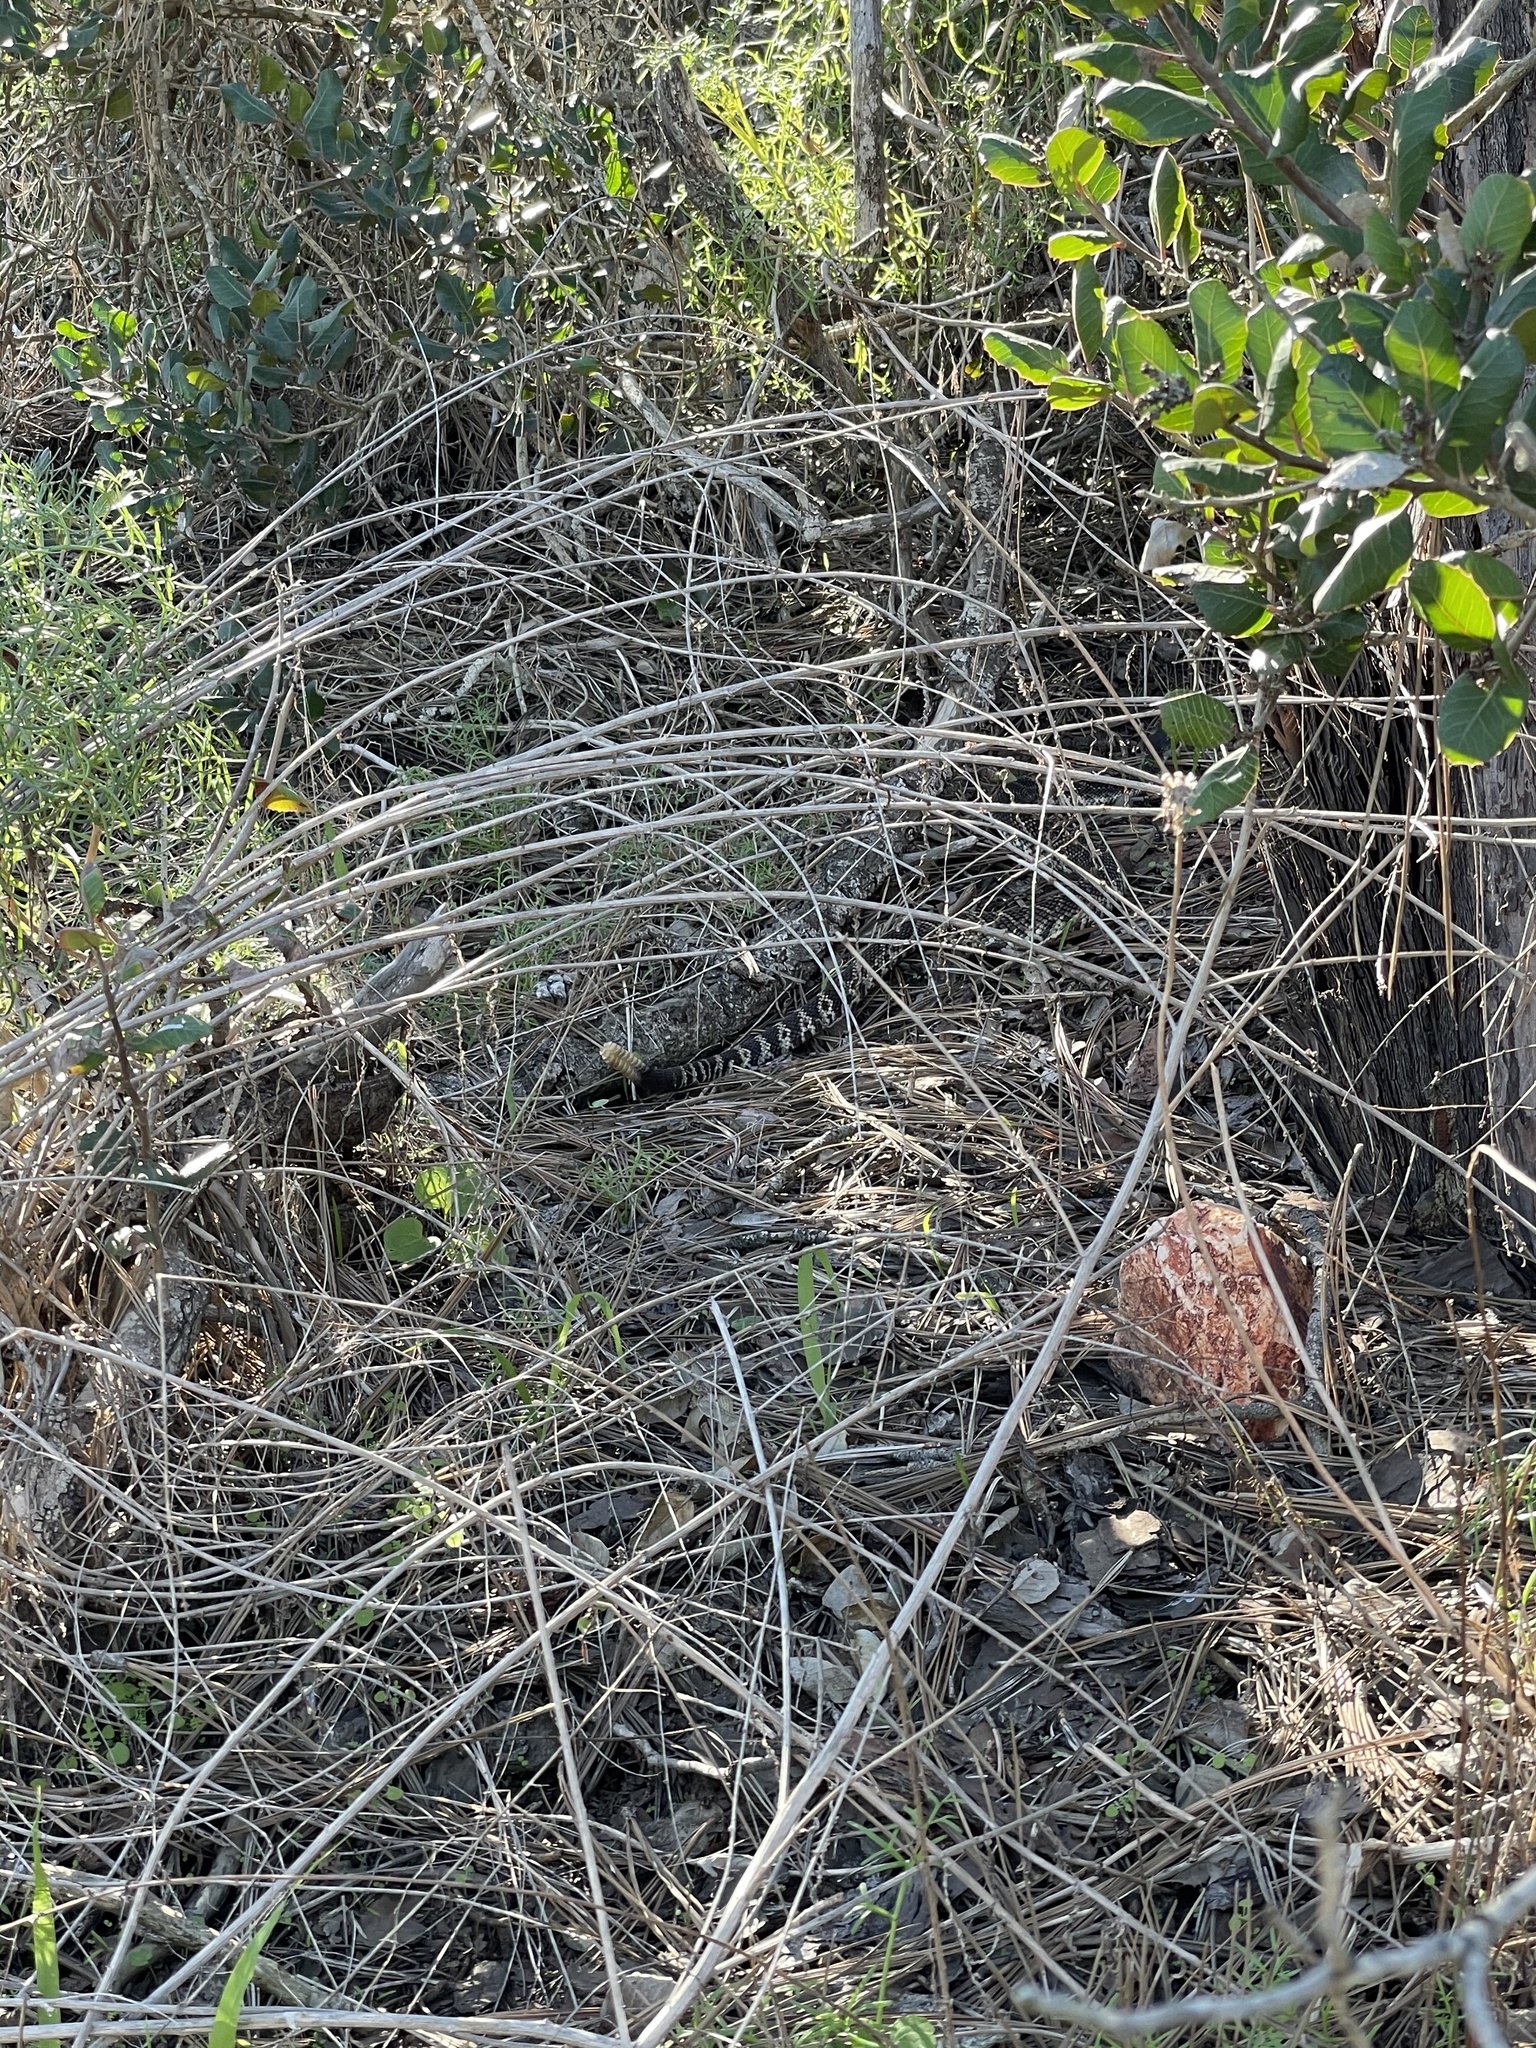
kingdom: Animalia
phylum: Chordata
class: Squamata
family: Viperidae
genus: Crotalus
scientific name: Crotalus oreganus
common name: Abyssus
